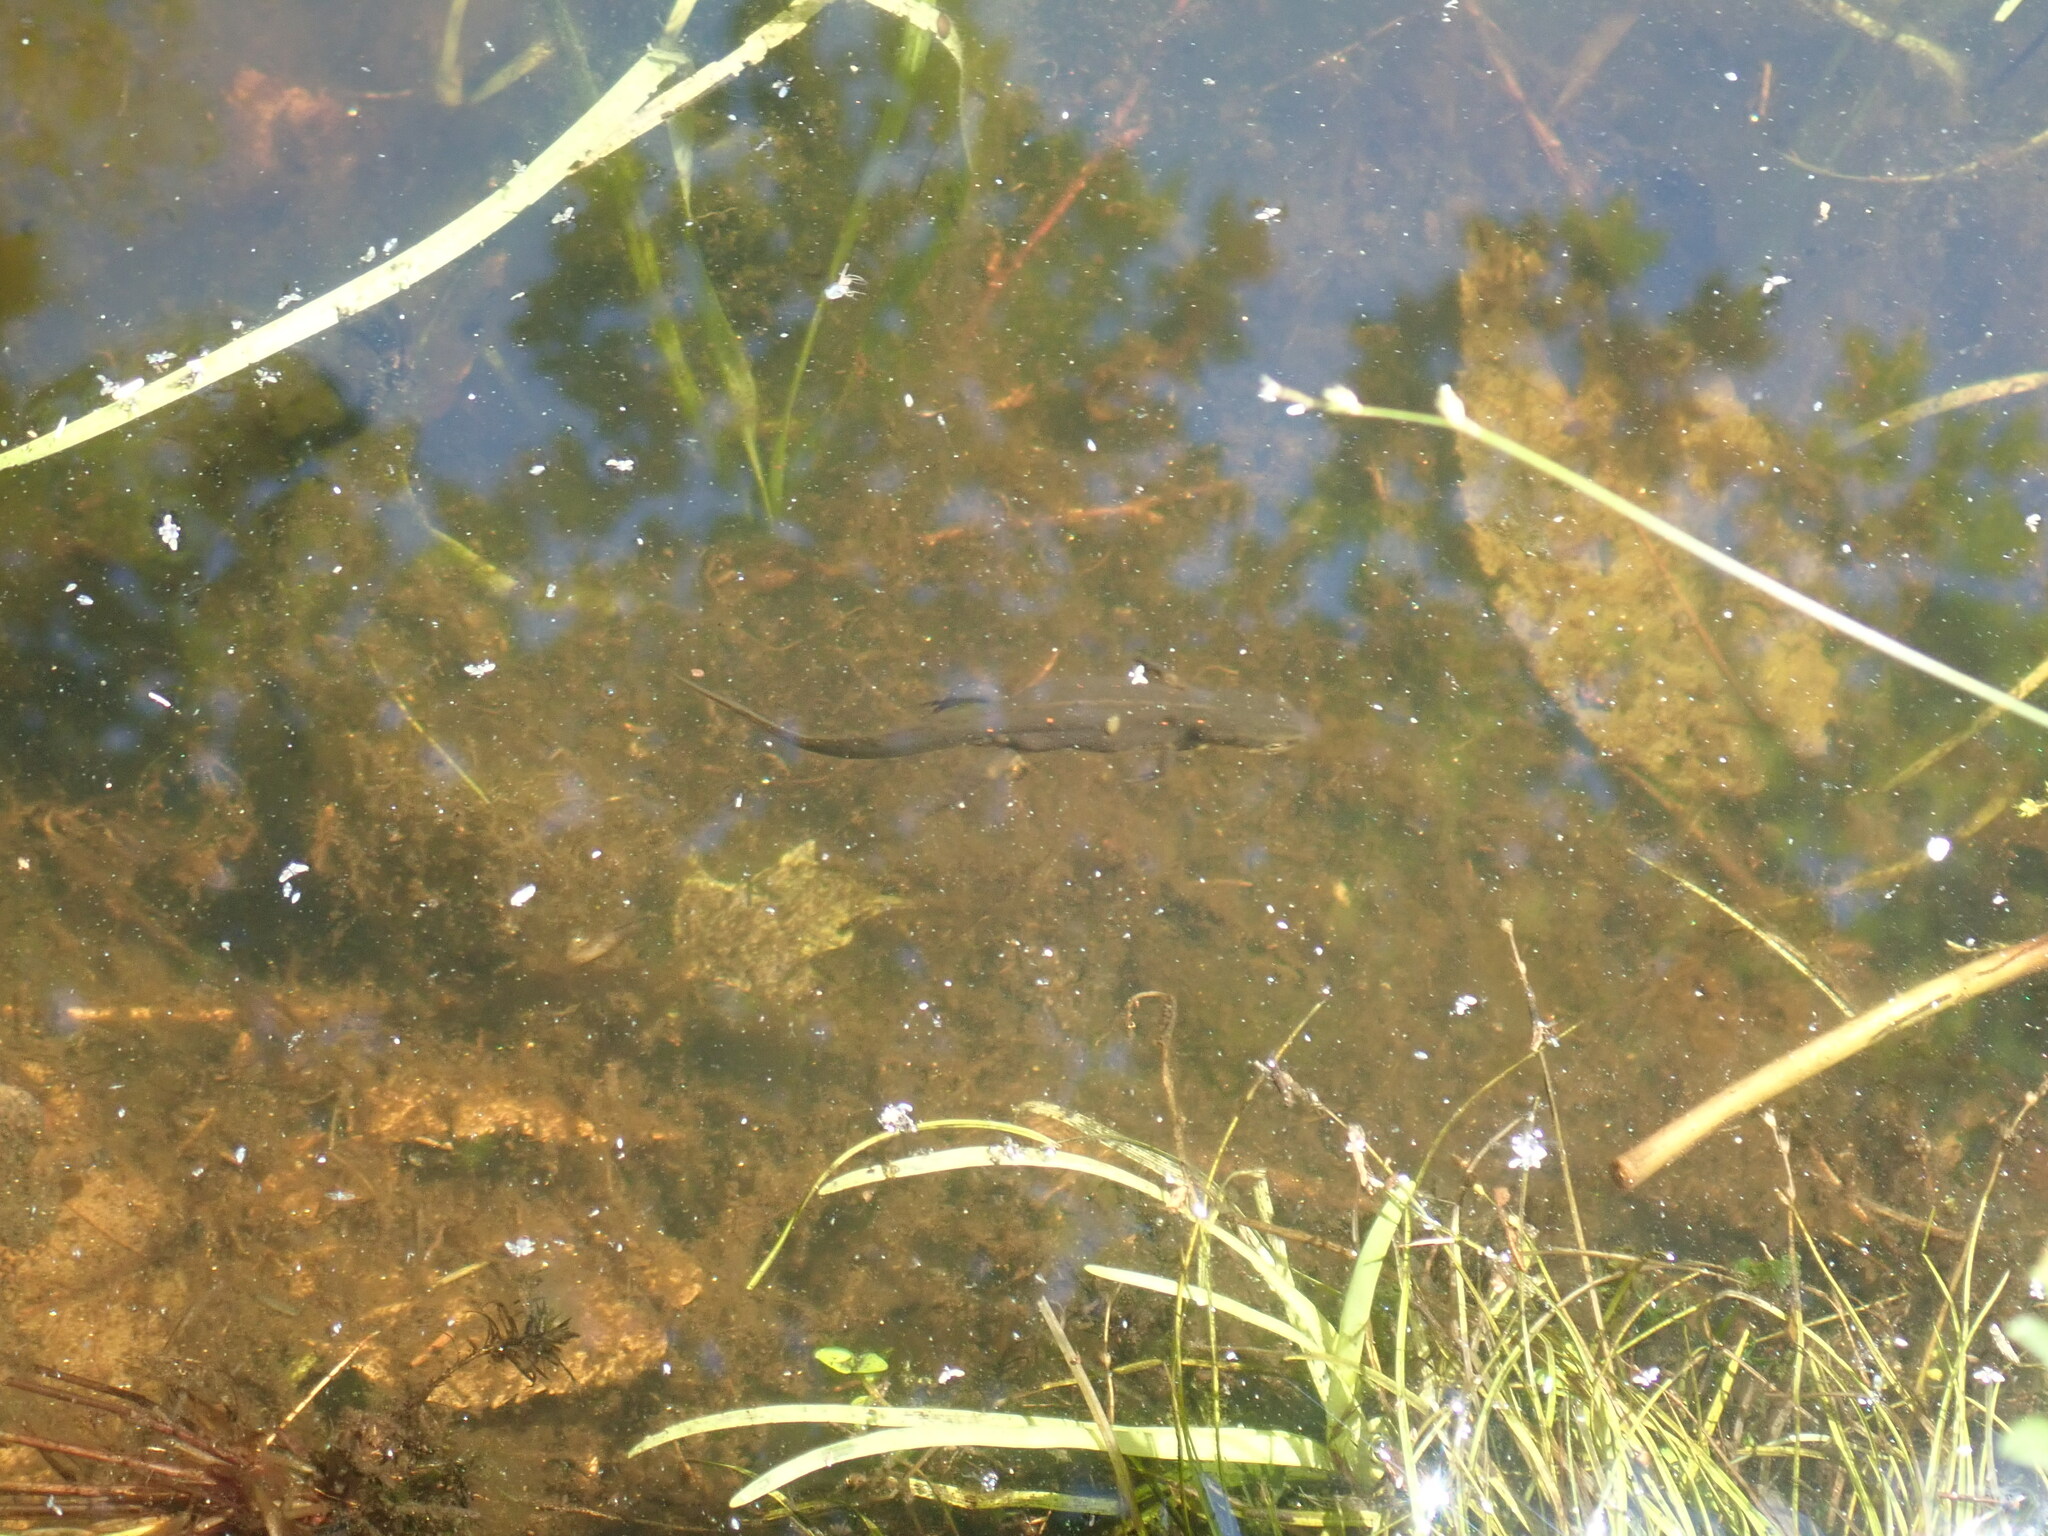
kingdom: Animalia
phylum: Chordata
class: Amphibia
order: Caudata
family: Salamandridae
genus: Notophthalmus
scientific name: Notophthalmus viridescens
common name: Eastern newt
